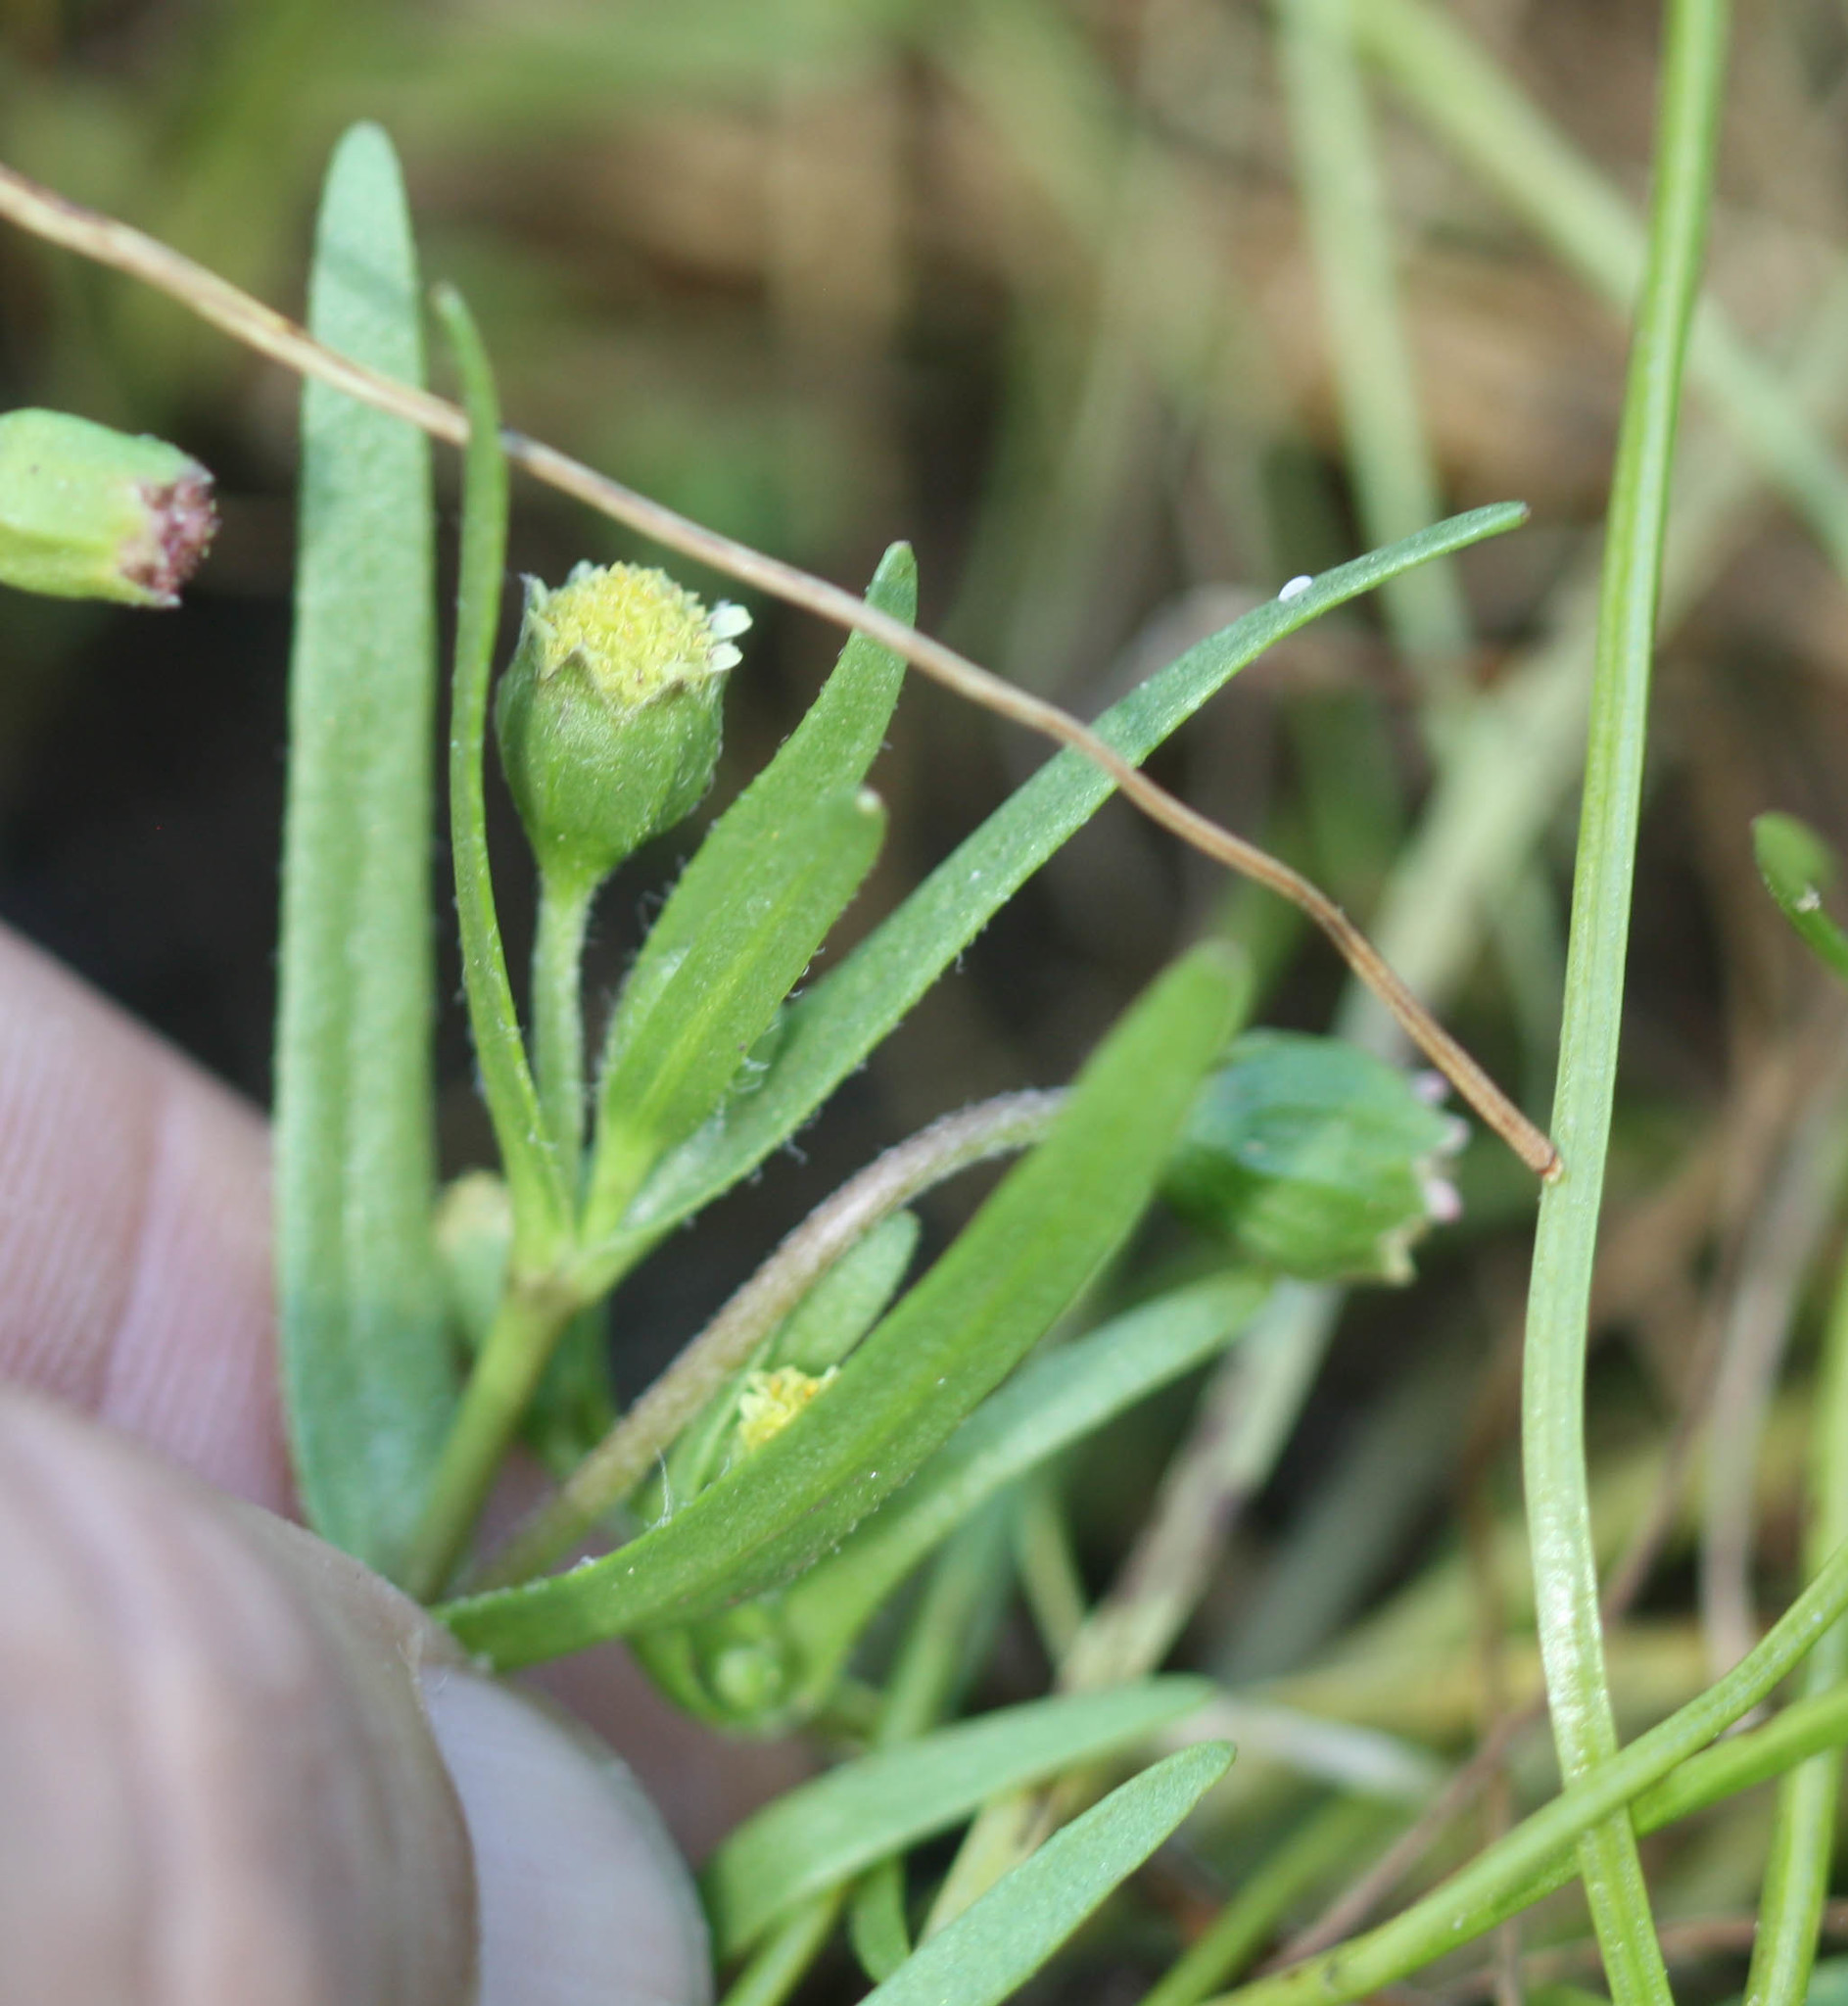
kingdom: Plantae
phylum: Tracheophyta
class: Magnoliopsida
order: Asterales
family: Asteraceae
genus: Lasthenia
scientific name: Lasthenia glaberrima
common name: Smooth goldfields
